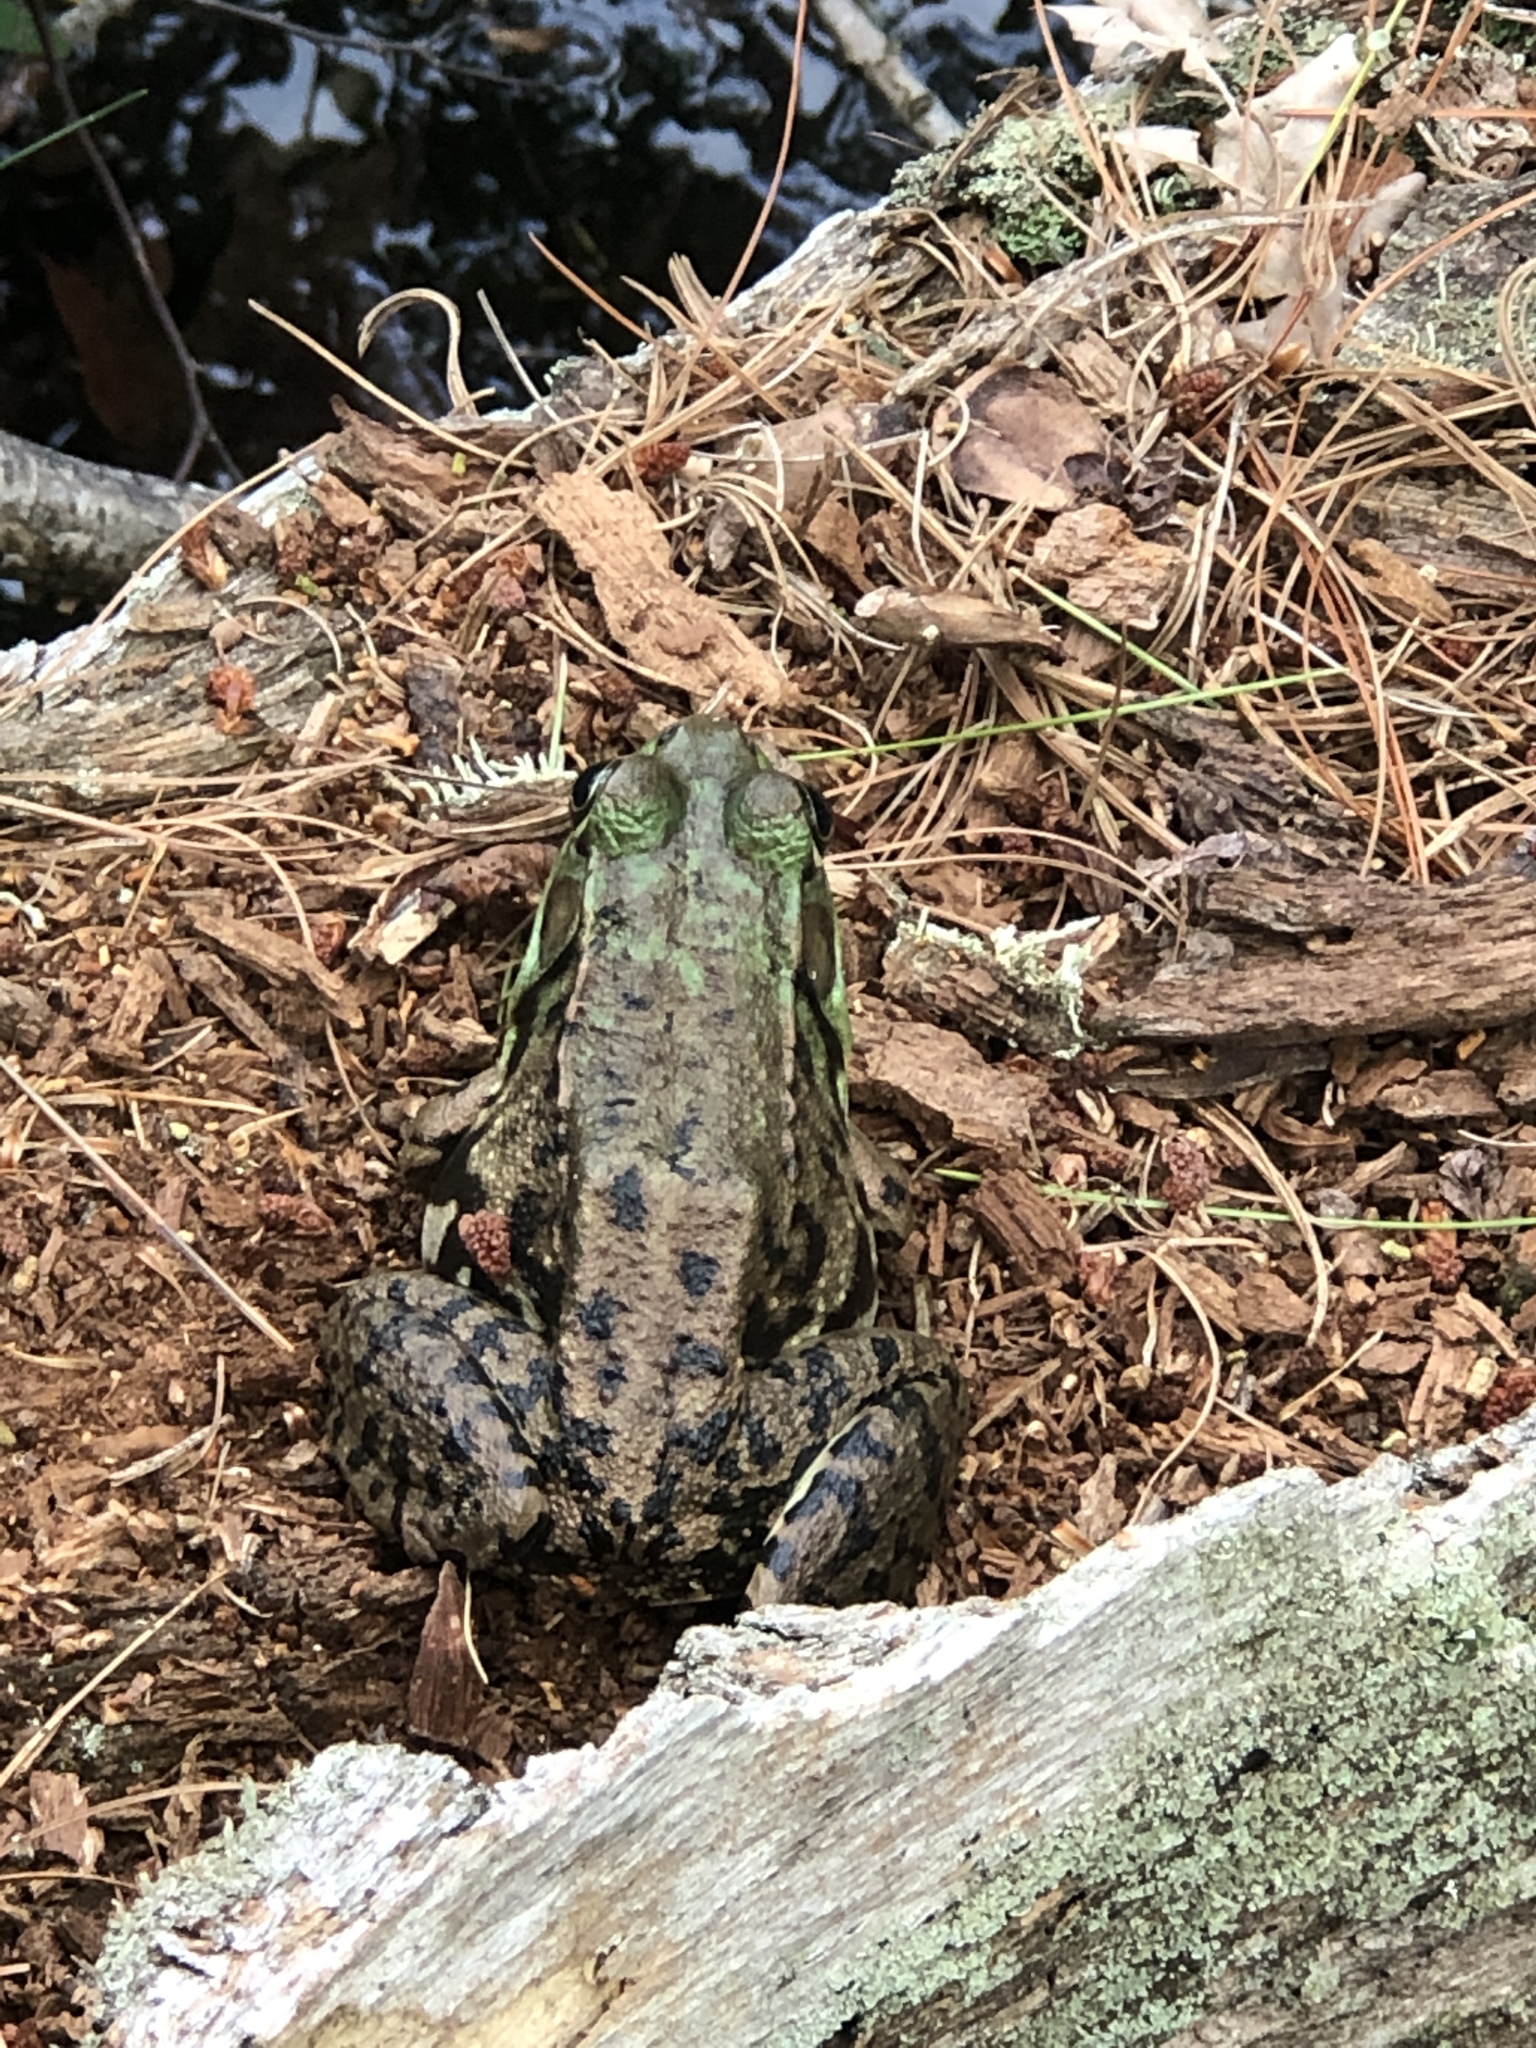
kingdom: Animalia
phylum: Chordata
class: Amphibia
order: Anura
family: Ranidae
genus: Lithobates
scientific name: Lithobates clamitans
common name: Green frog
